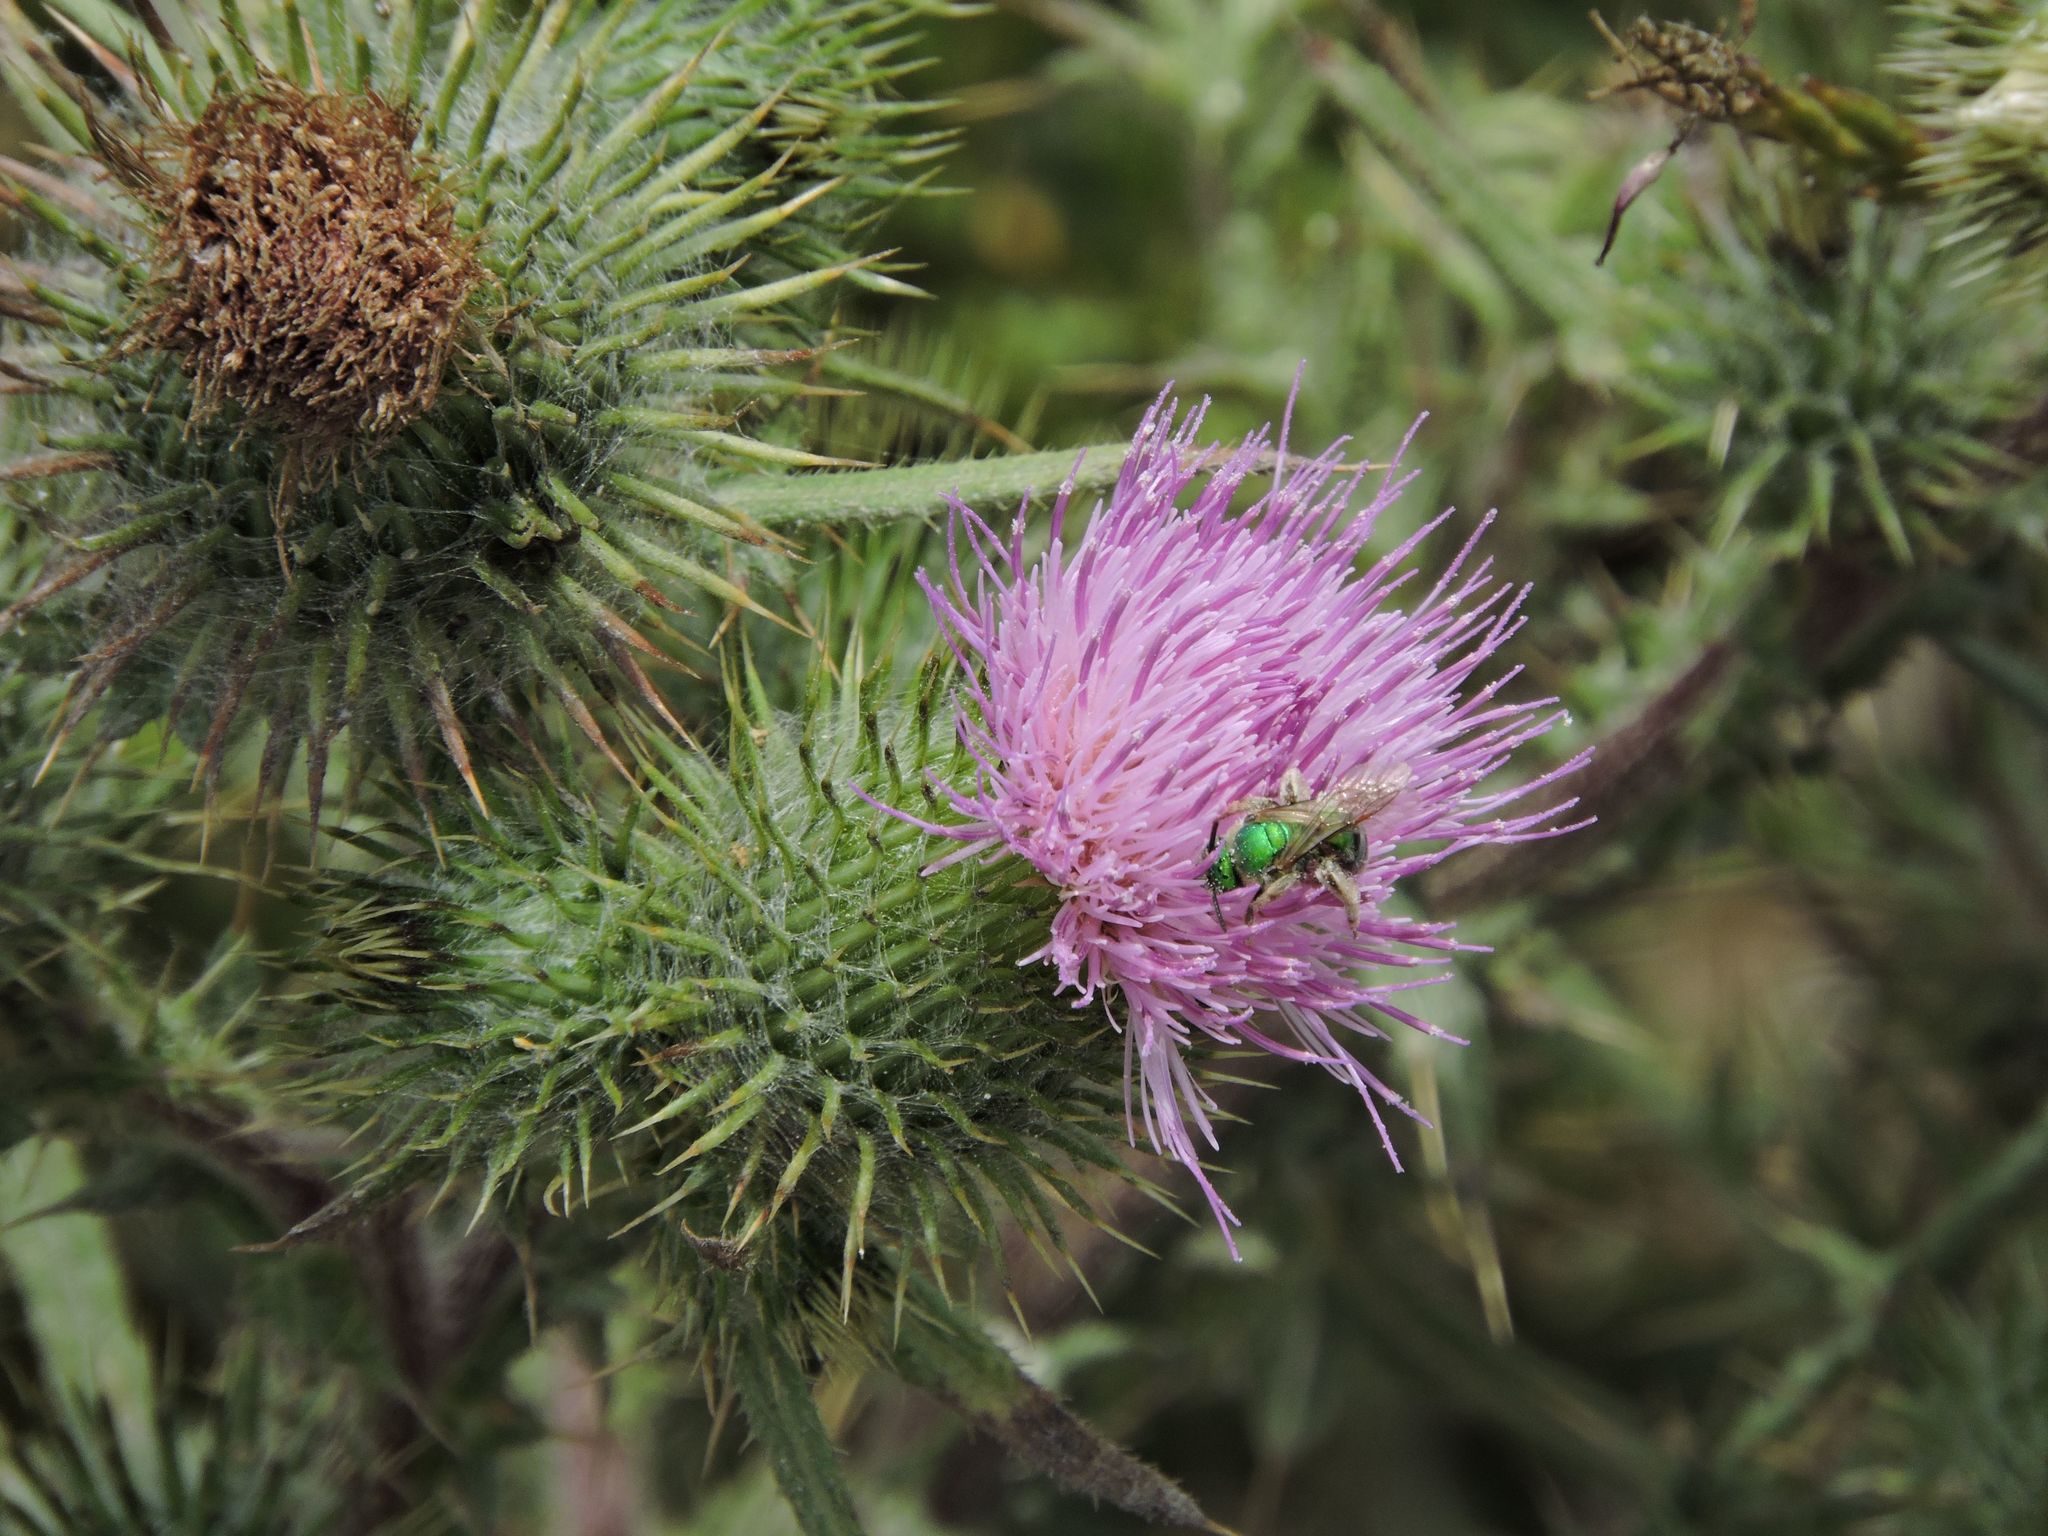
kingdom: Plantae
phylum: Tracheophyta
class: Magnoliopsida
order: Asterales
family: Asteraceae
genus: Cirsium
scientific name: Cirsium vulgare
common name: Bull thistle
